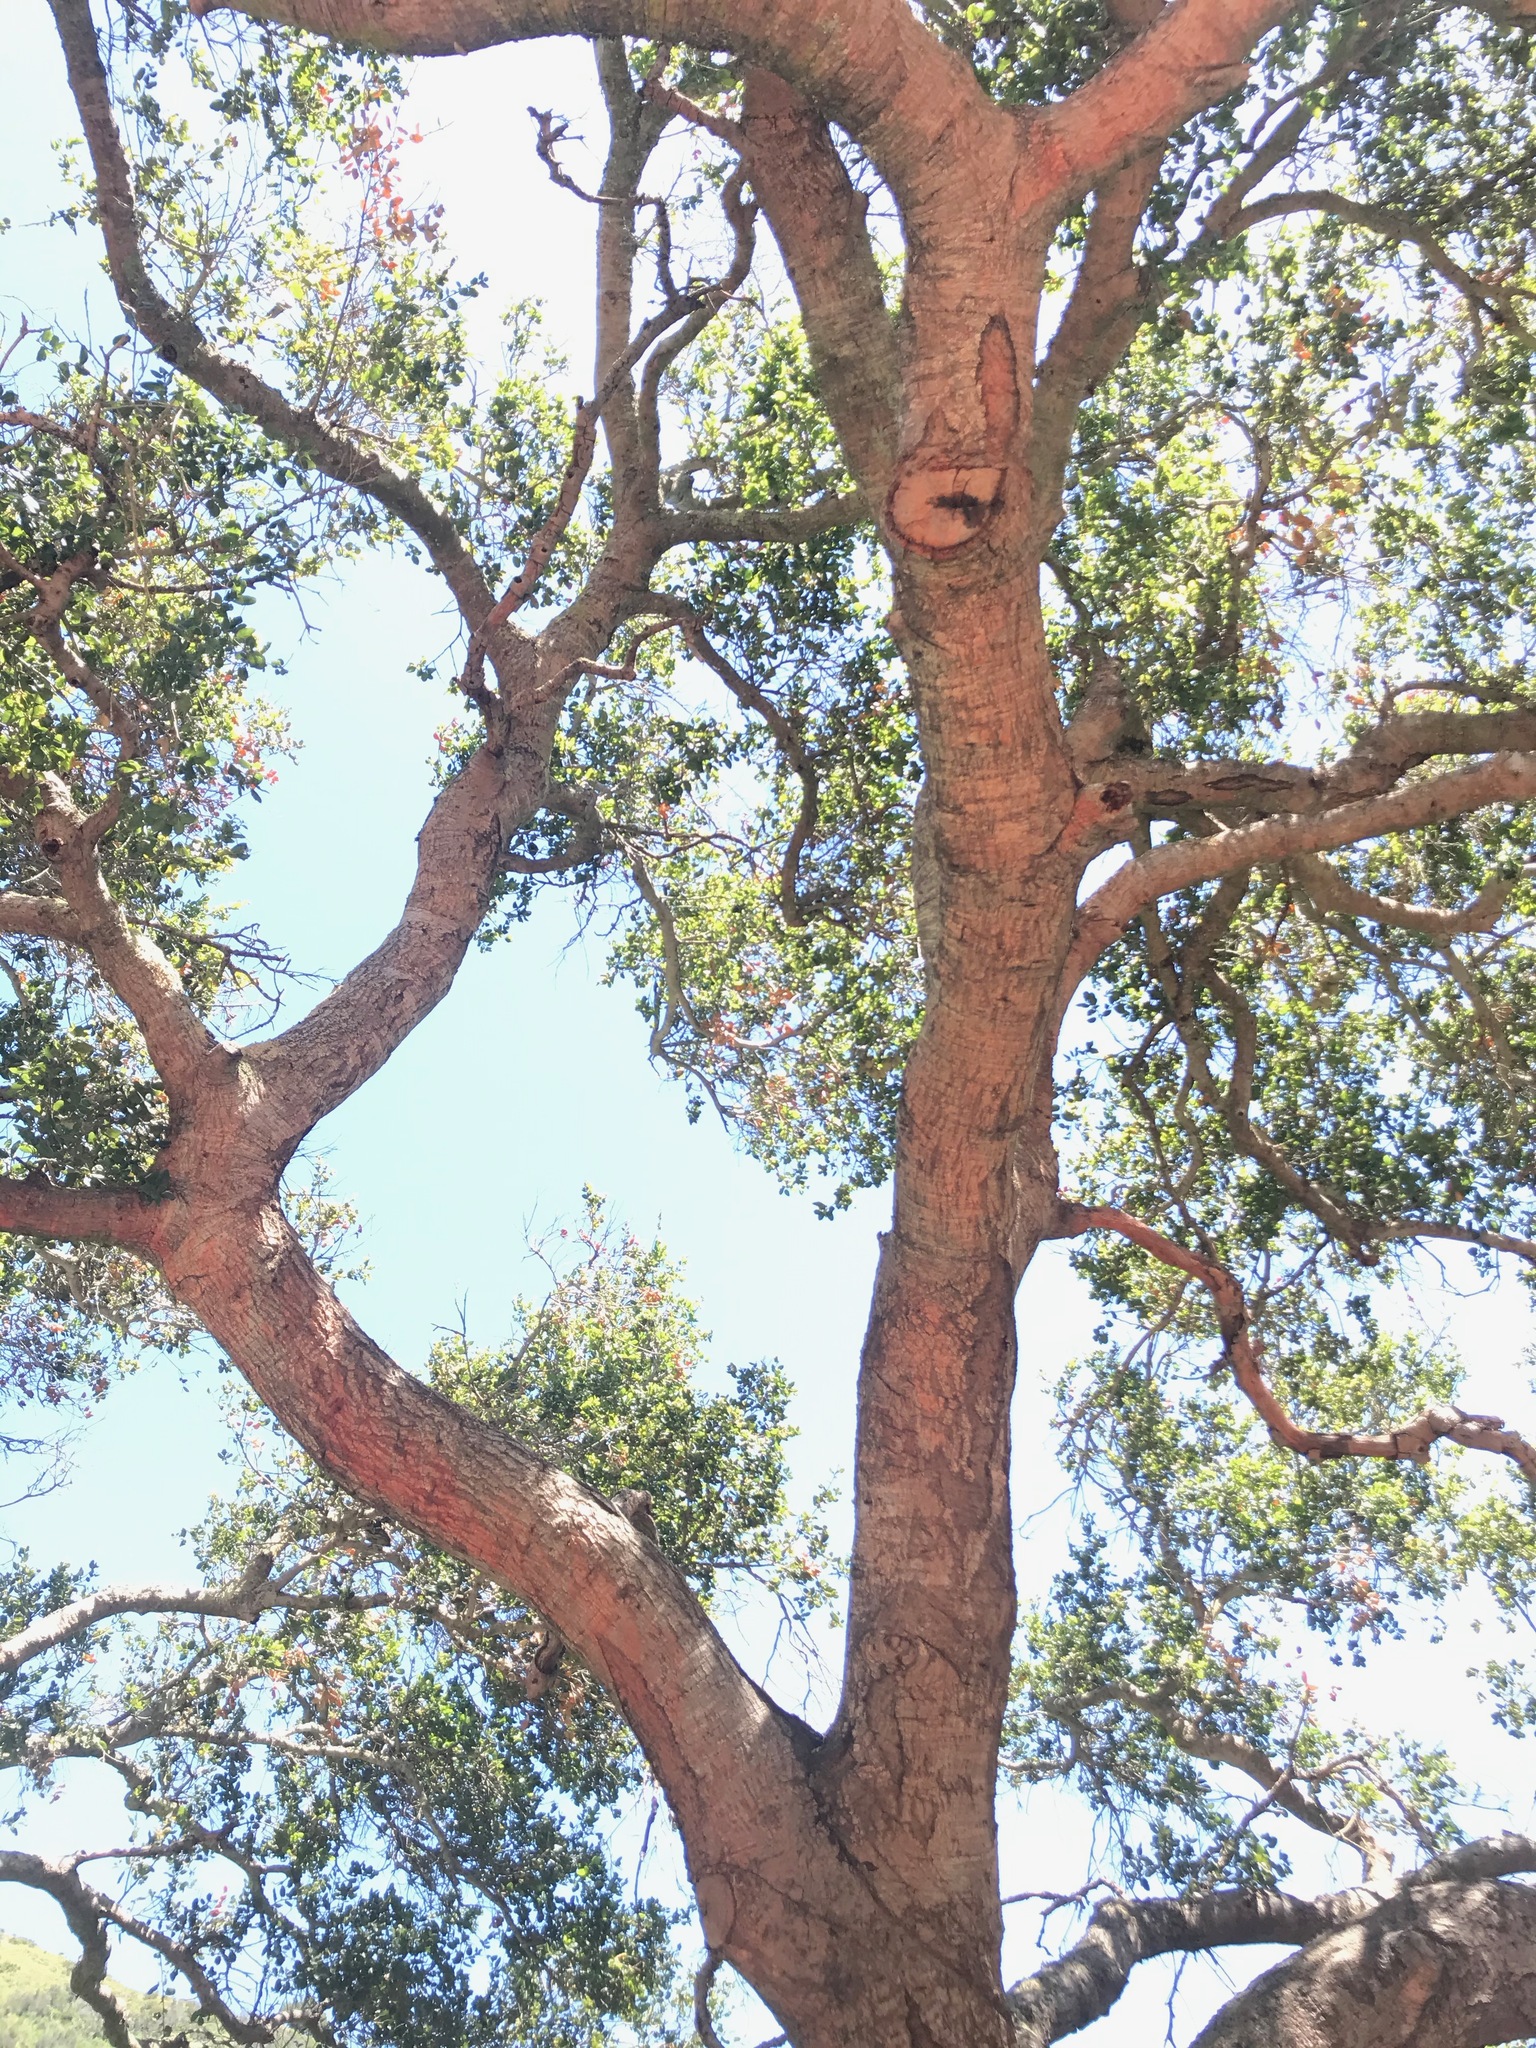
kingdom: Plantae
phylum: Tracheophyta
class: Magnoliopsida
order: Fagales
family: Fagaceae
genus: Quercus
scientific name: Quercus agrifolia
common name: California live oak
